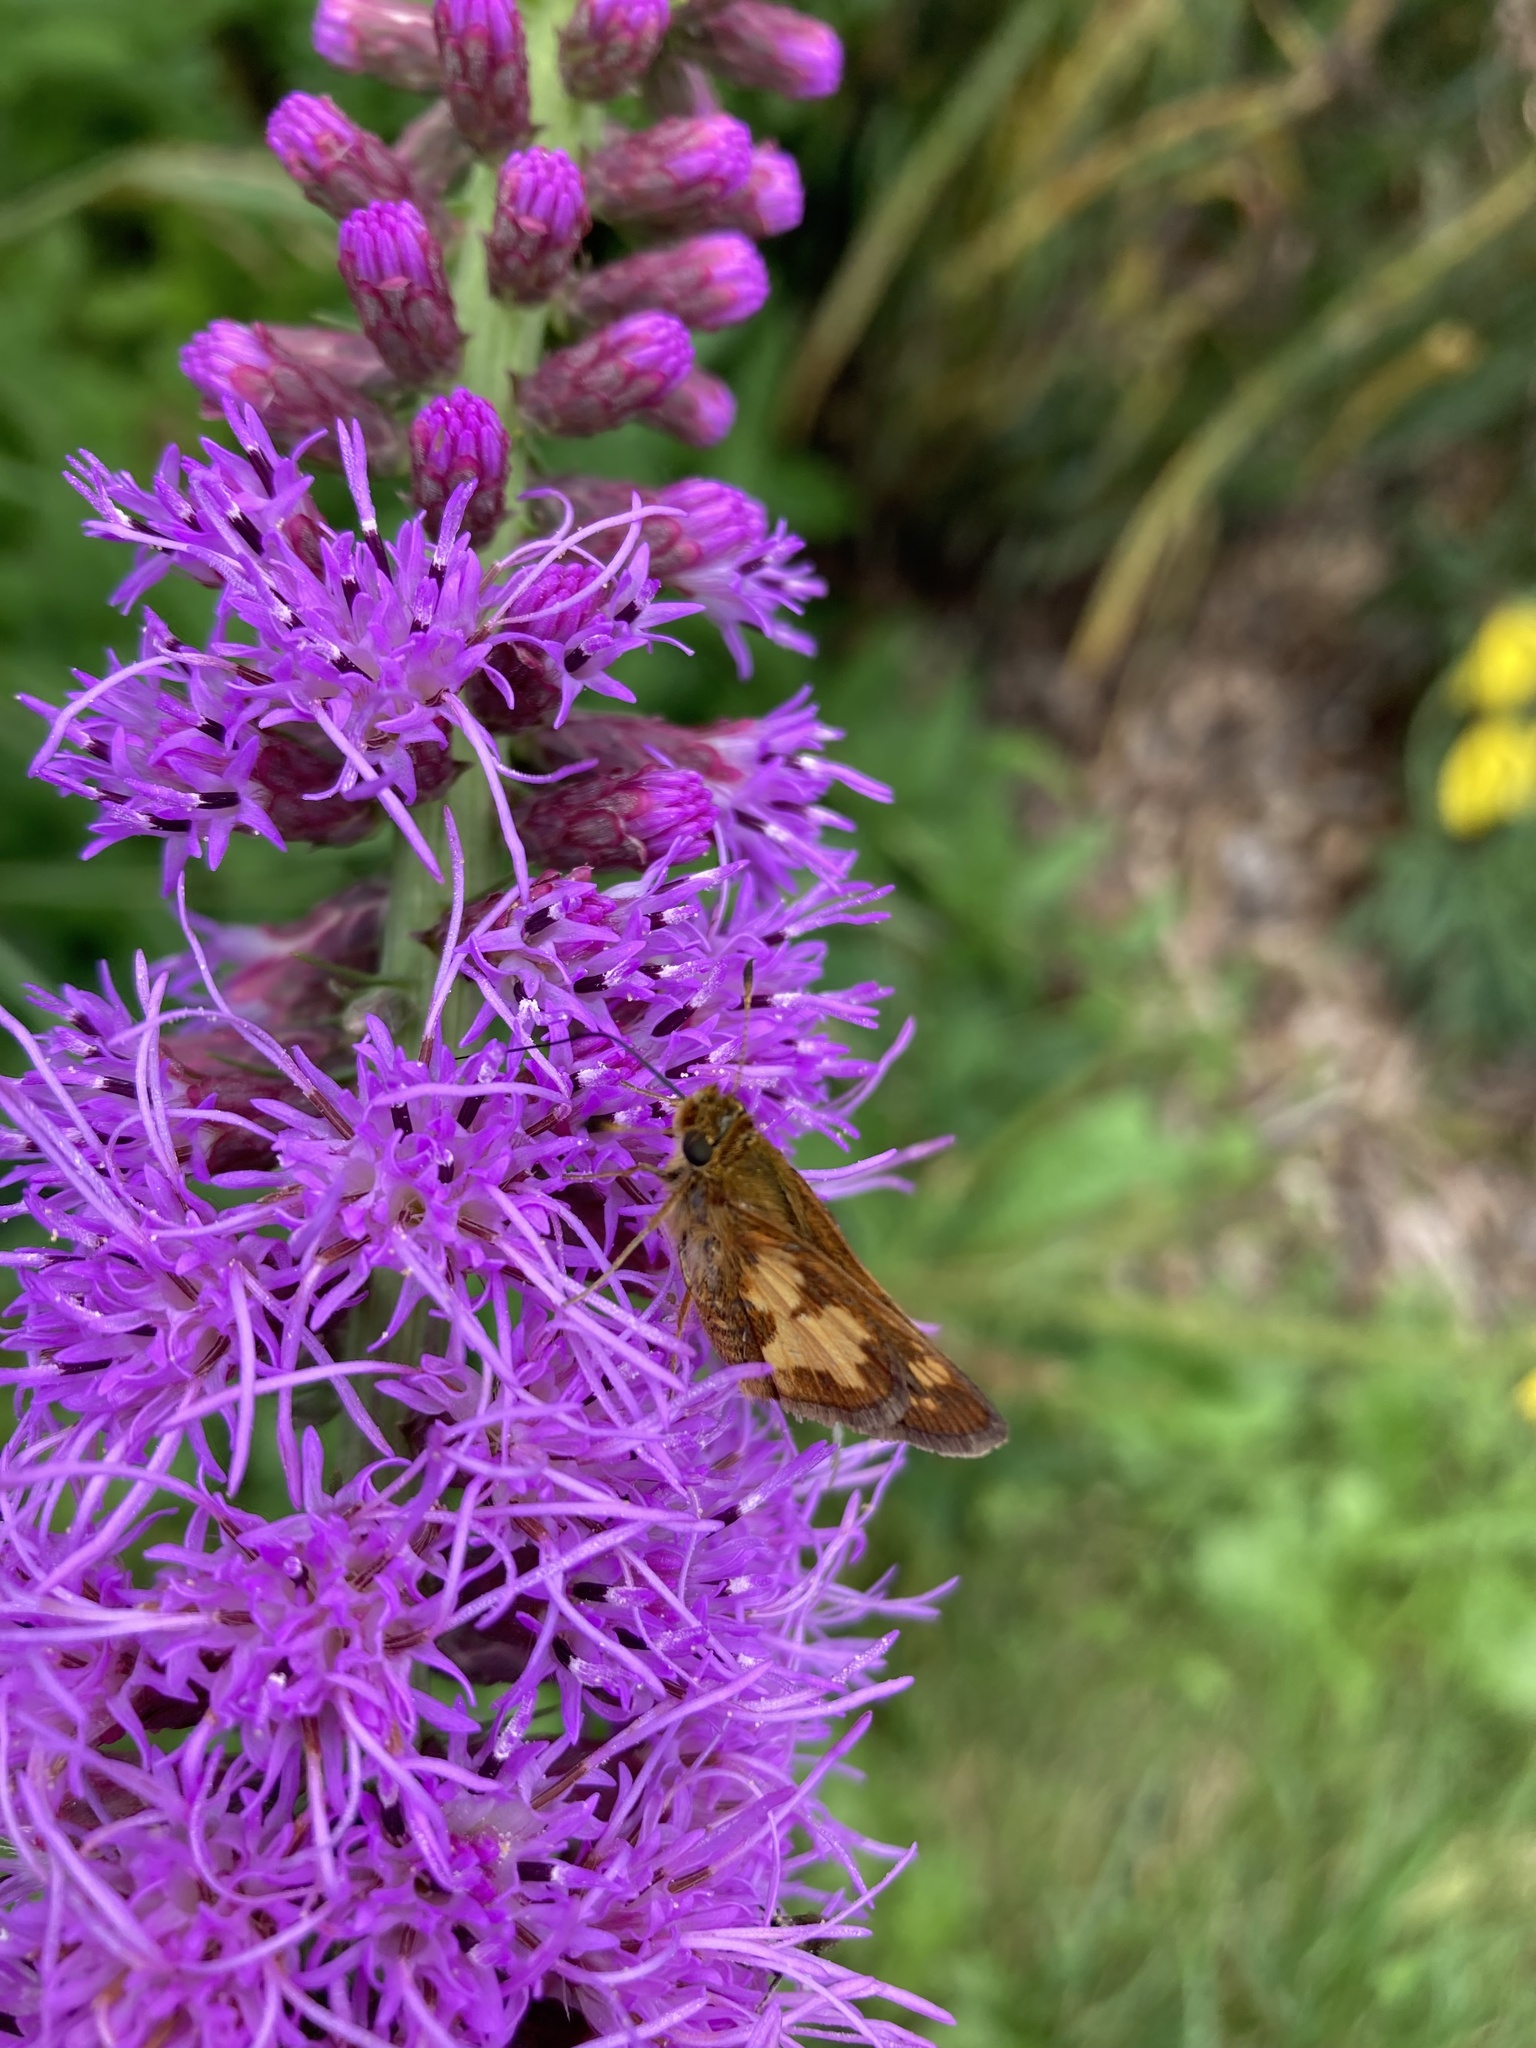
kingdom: Animalia
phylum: Arthropoda
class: Insecta
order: Lepidoptera
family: Hesperiidae
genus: Polites
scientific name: Polites coras
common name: Peck's skipper
